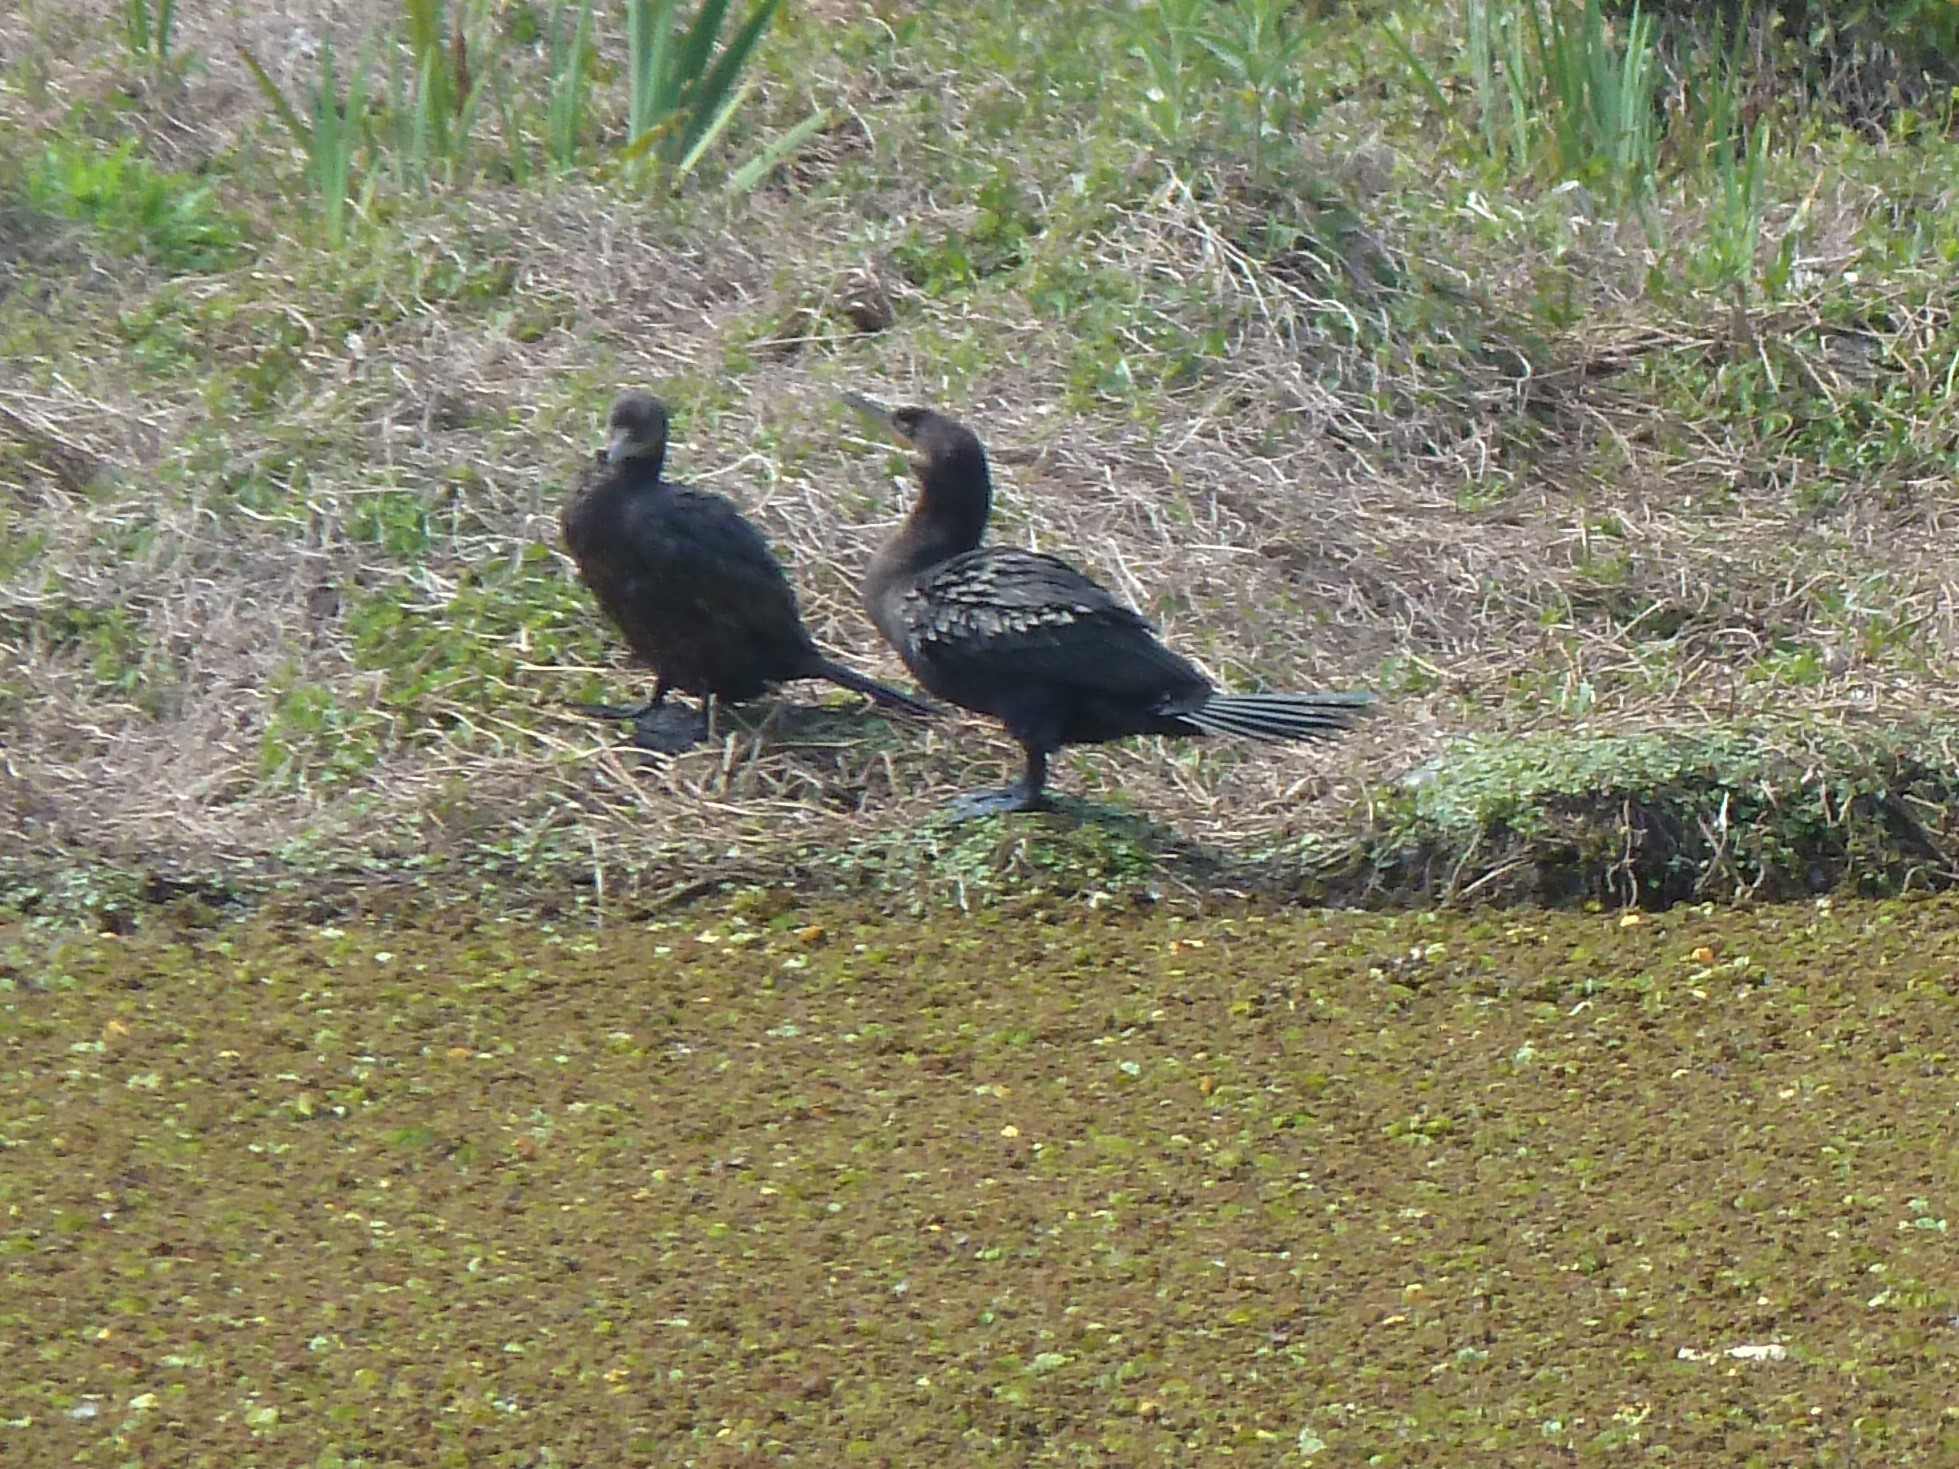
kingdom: Animalia
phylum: Chordata
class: Aves
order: Suliformes
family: Phalacrocoracidae
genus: Phalacrocorax
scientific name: Phalacrocorax brasilianus
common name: Neotropic cormorant
